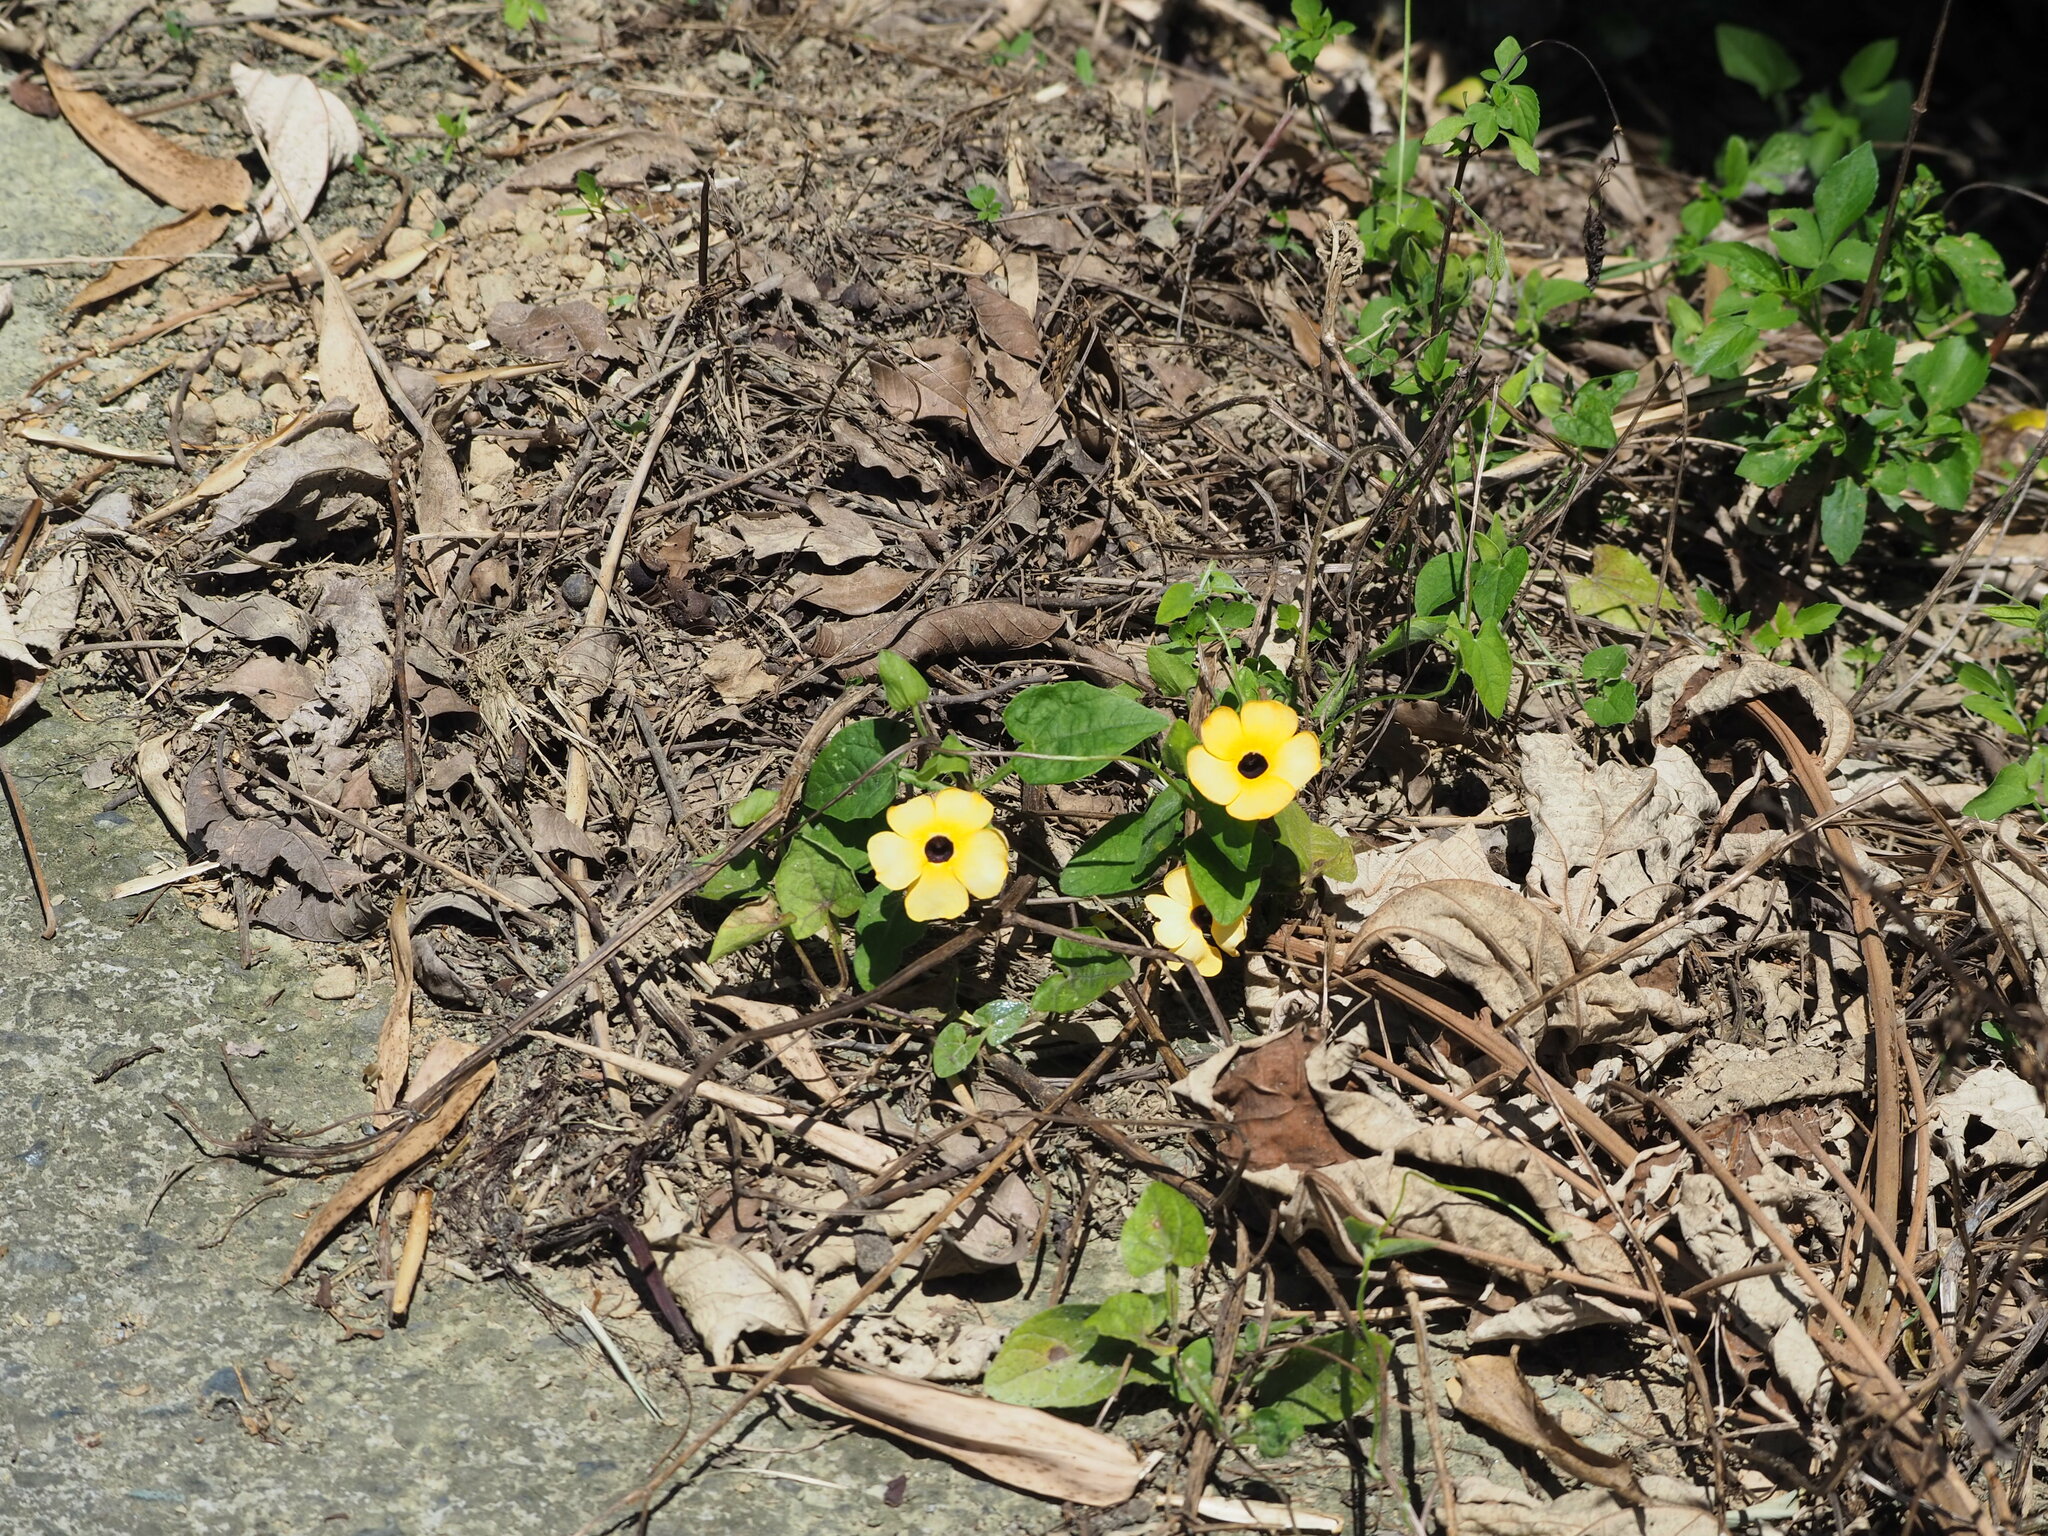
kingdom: Plantae
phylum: Tracheophyta
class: Magnoliopsida
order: Lamiales
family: Acanthaceae
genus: Thunbergia
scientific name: Thunbergia alata
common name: Blackeyed susan vine
